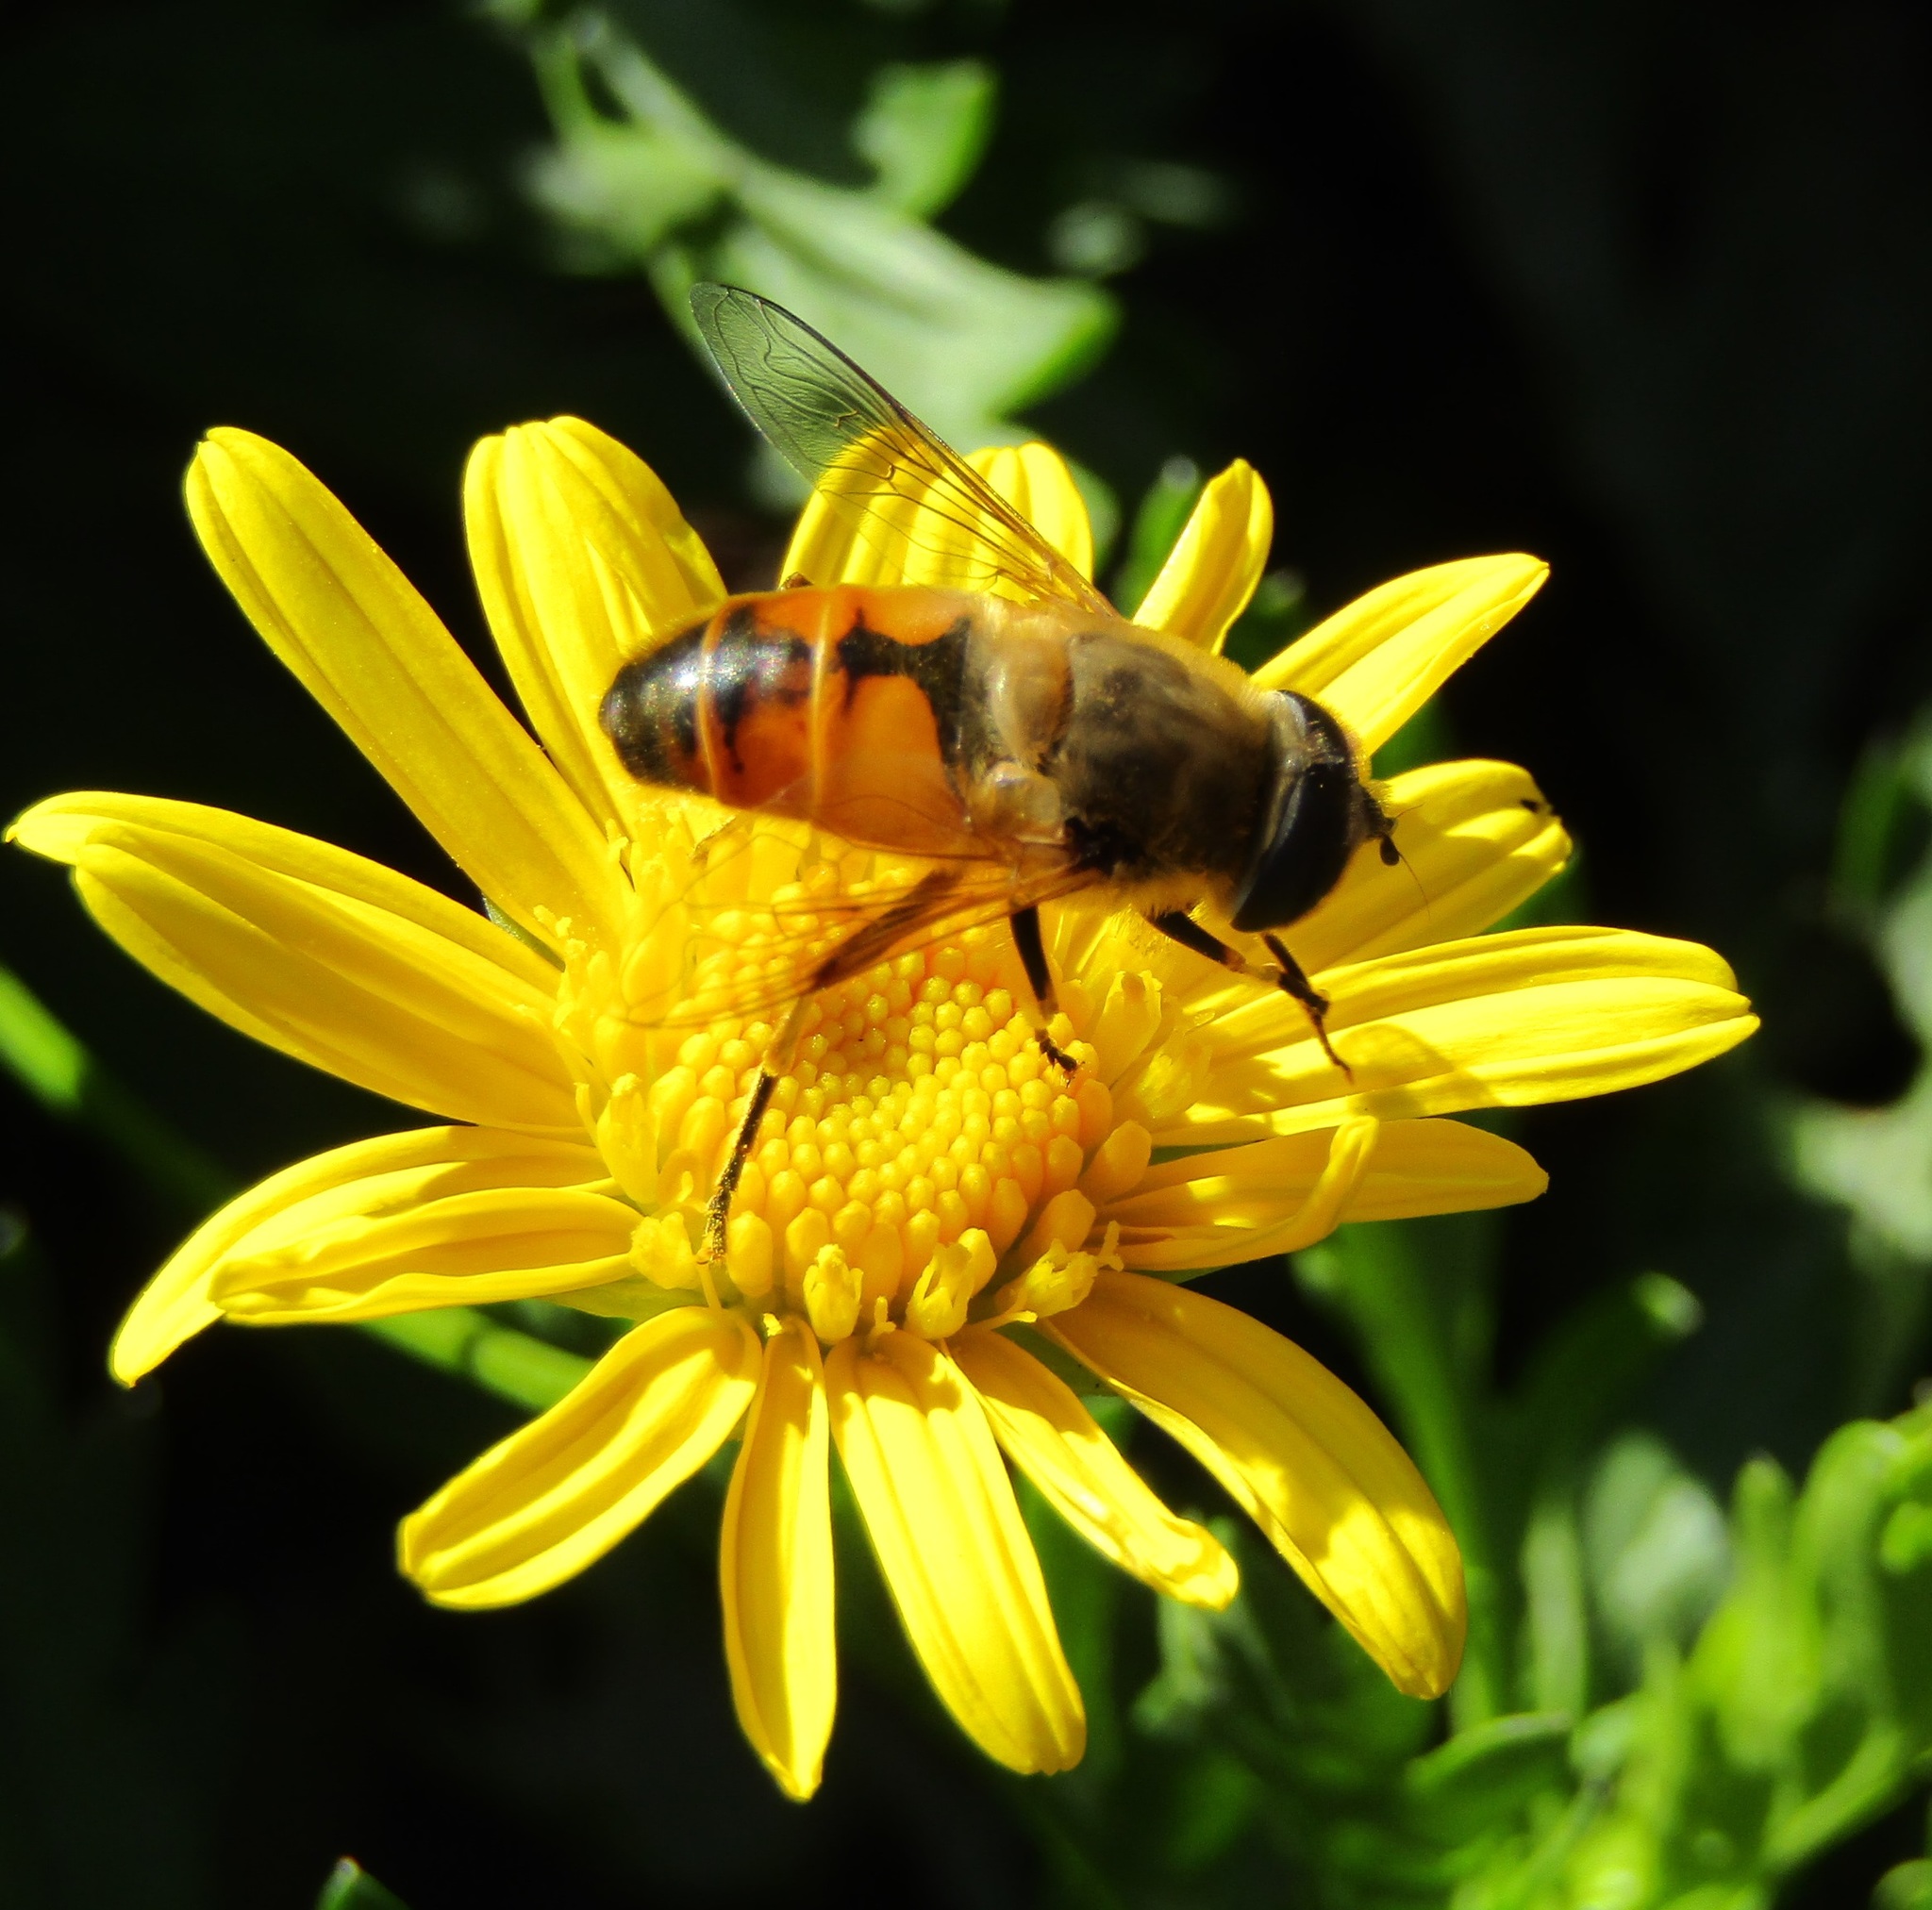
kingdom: Animalia
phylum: Arthropoda
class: Insecta
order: Diptera
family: Syrphidae
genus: Eristalis
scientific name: Eristalis tenax
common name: Drone fly
